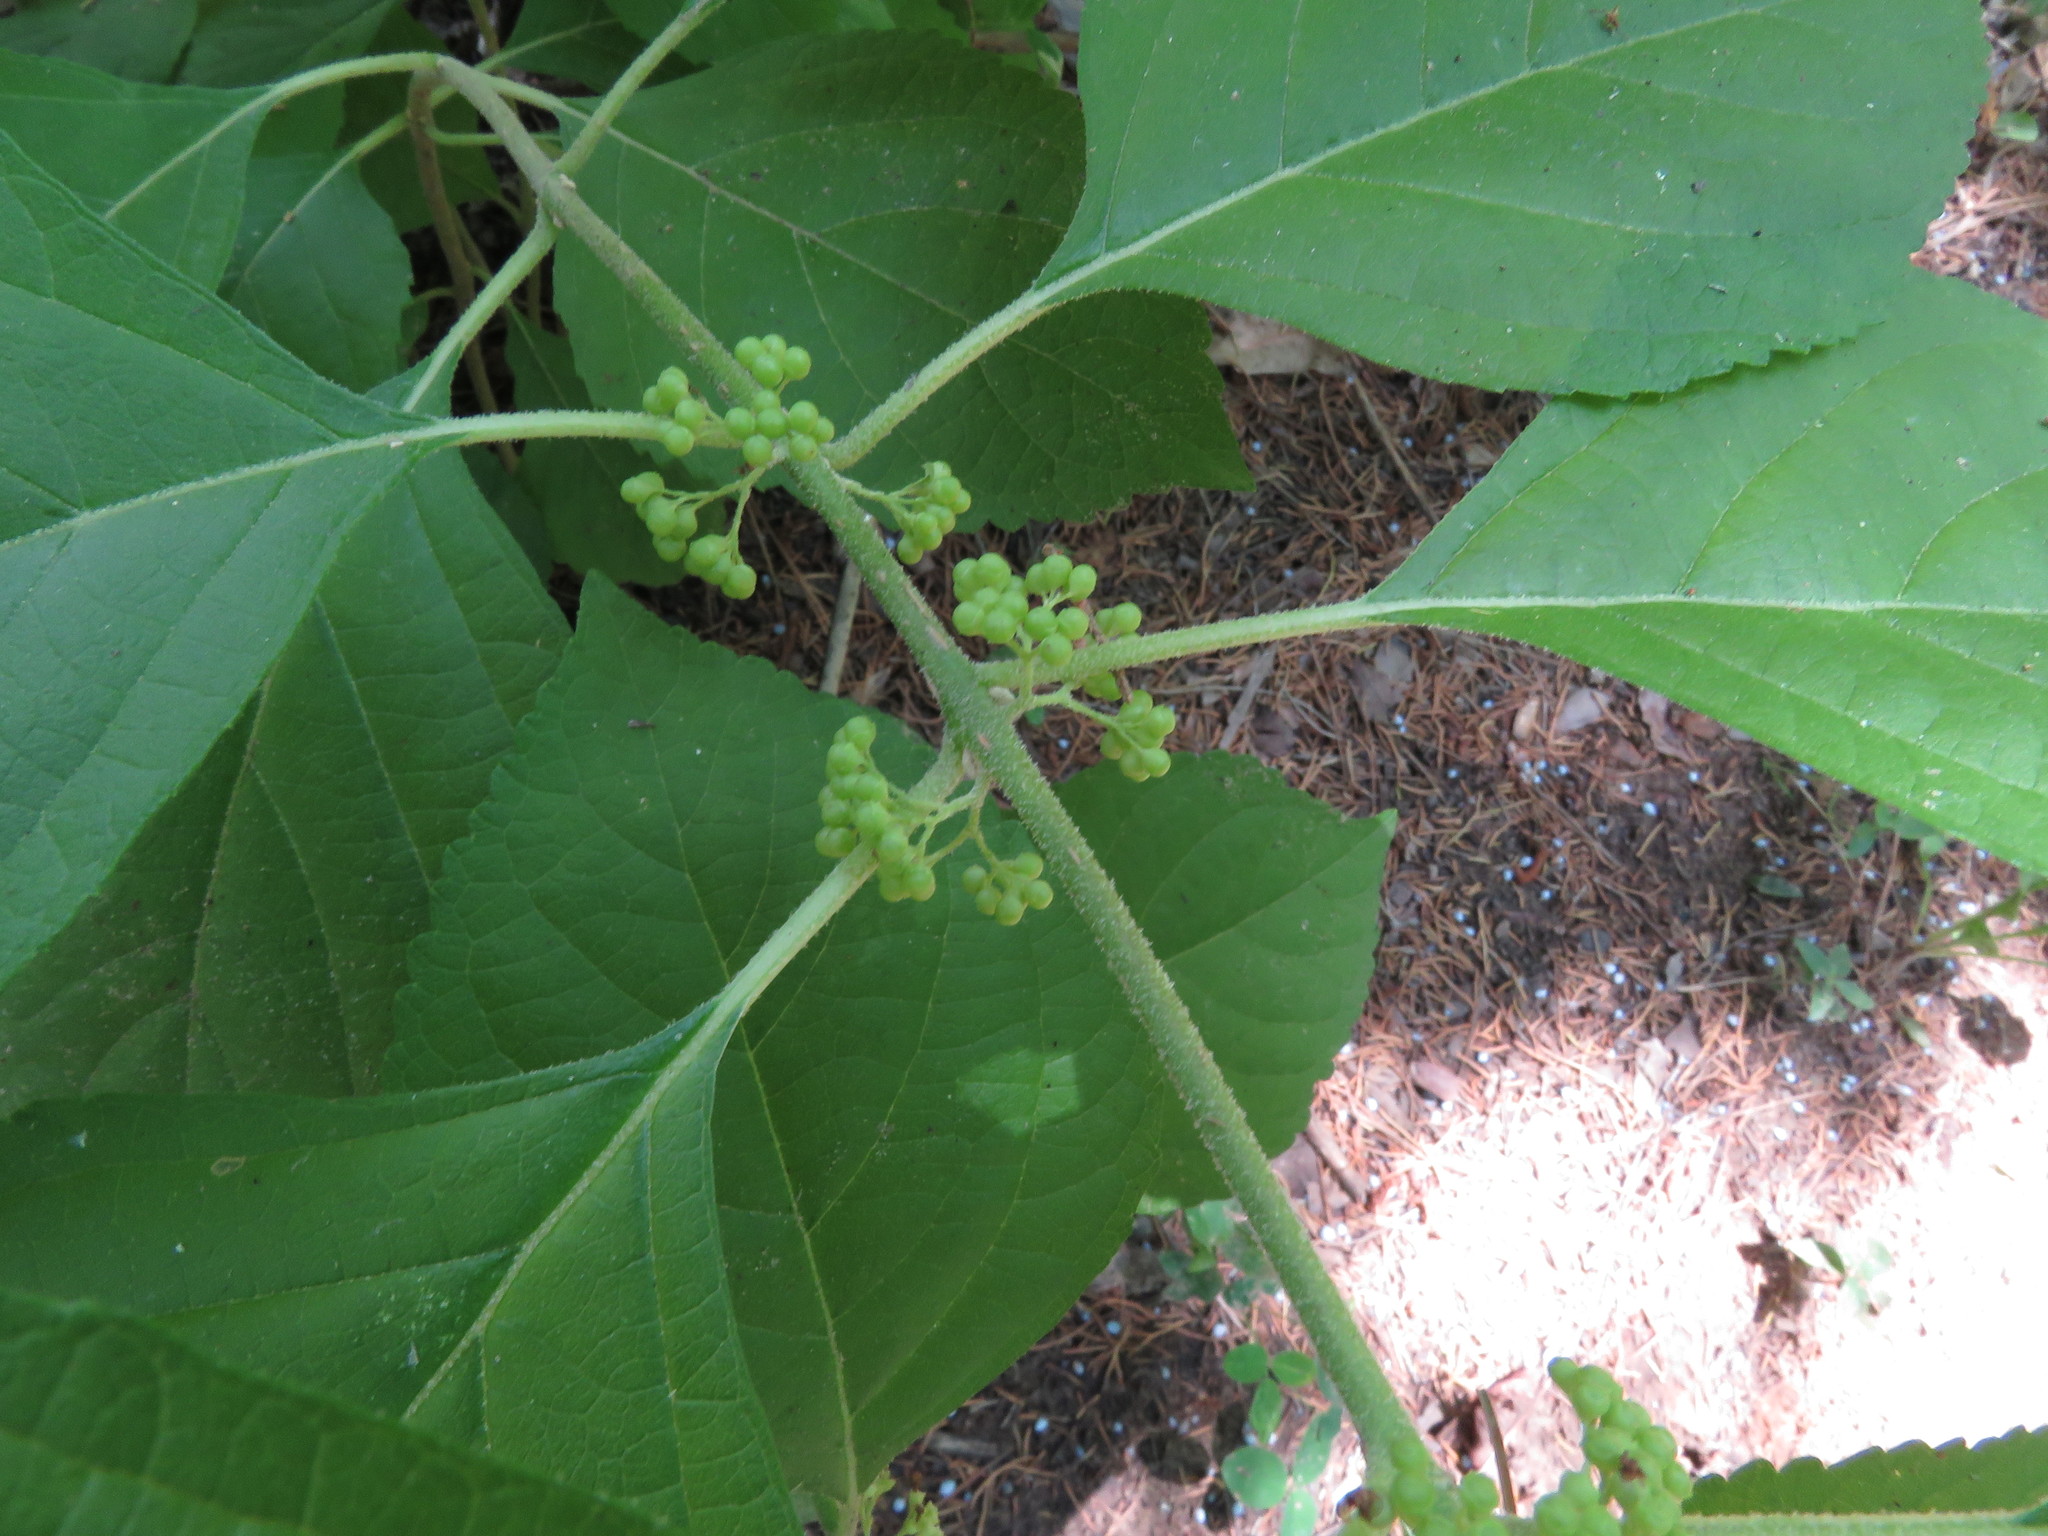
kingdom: Plantae
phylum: Tracheophyta
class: Magnoliopsida
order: Lamiales
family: Lamiaceae
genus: Callicarpa
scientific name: Callicarpa americana
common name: American beautyberry
